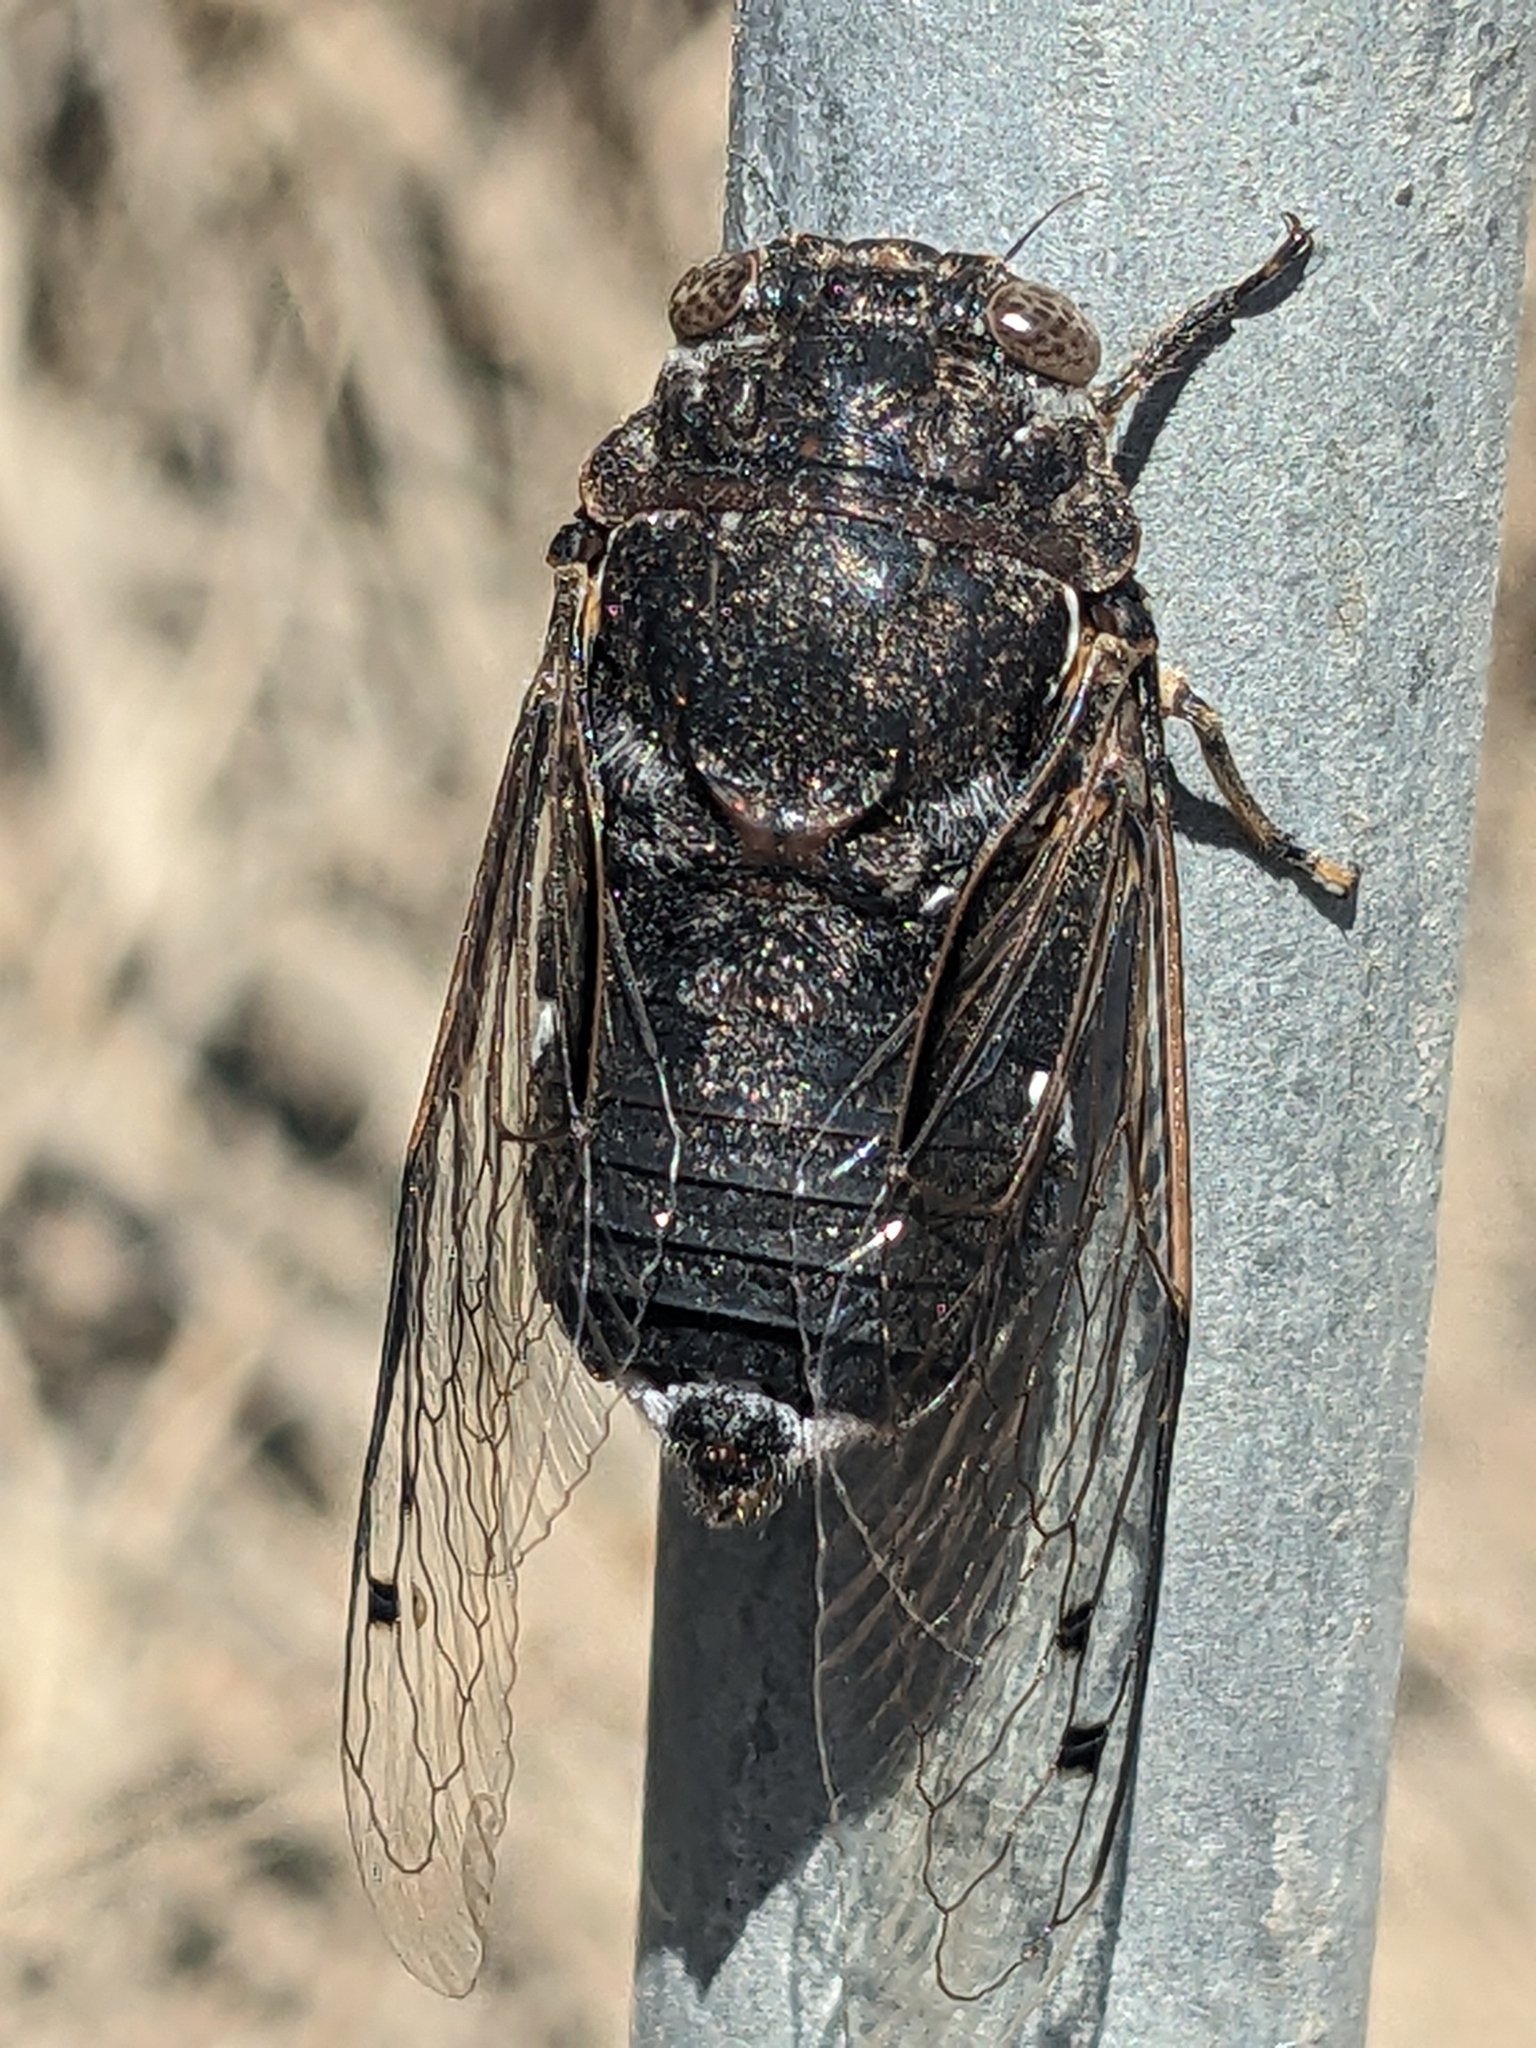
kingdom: Animalia
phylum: Arthropoda
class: Insecta
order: Hemiptera
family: Cicadidae
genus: Cacama
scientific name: Cacama crepitans
